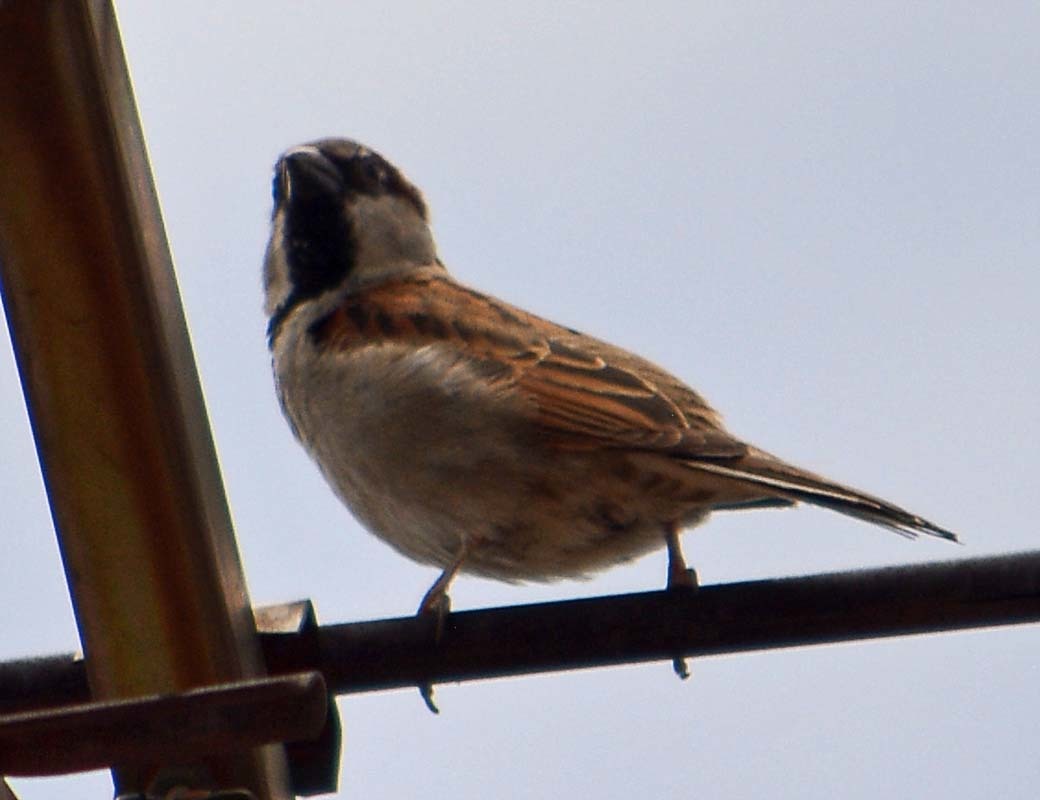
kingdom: Animalia
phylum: Chordata
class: Aves
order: Passeriformes
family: Passeridae
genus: Passer
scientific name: Passer domesticus
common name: House sparrow
